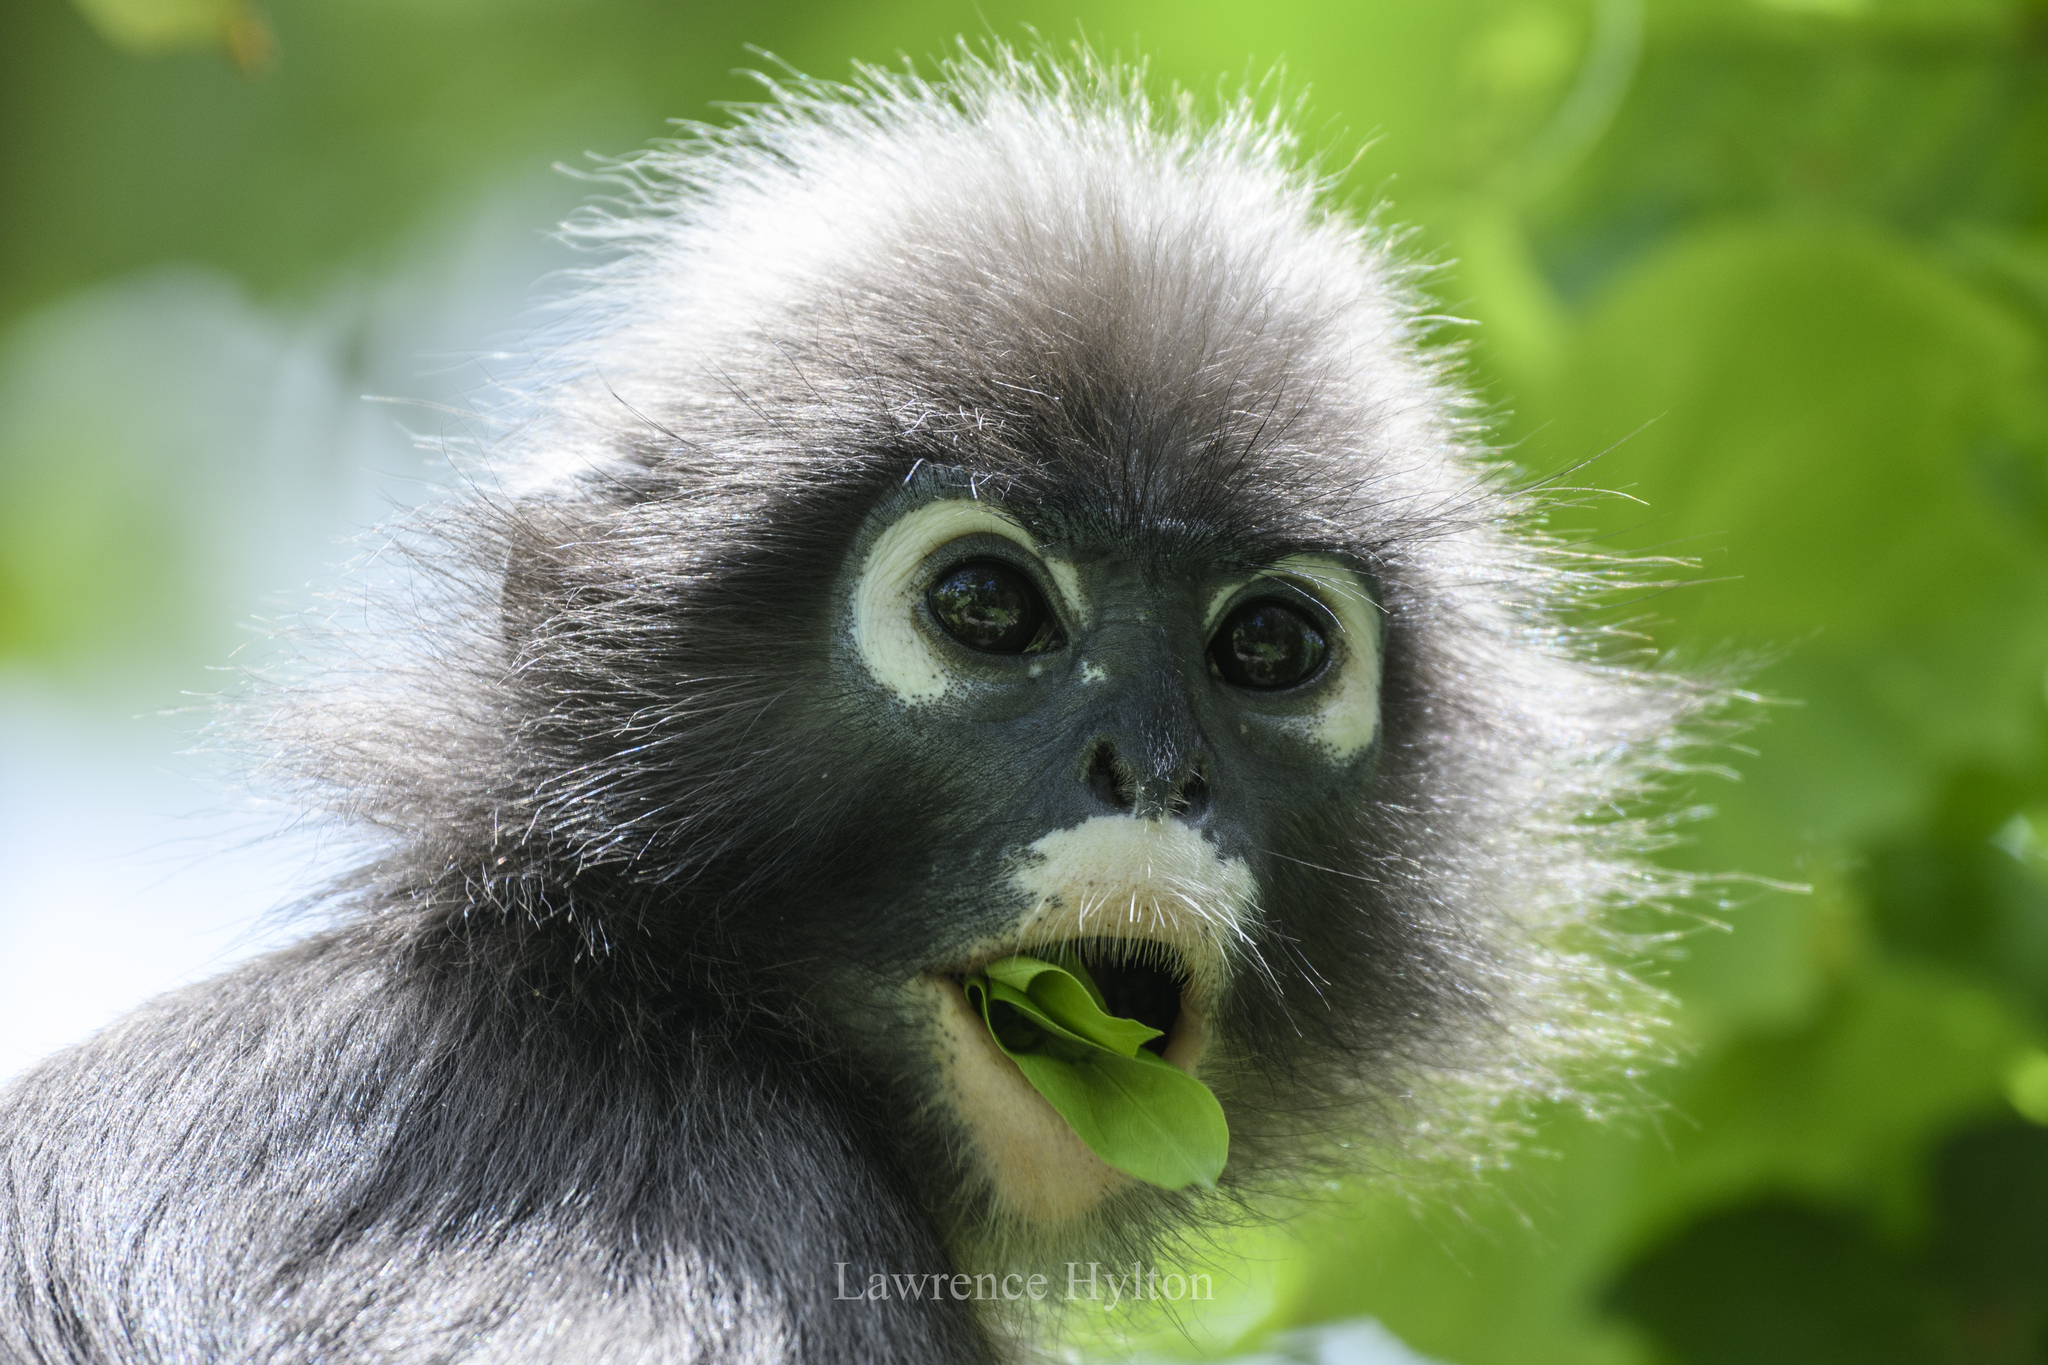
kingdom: Animalia
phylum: Chordata
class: Mammalia
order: Primates
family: Cercopithecidae
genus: Trachypithecus
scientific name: Trachypithecus obscurus
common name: Dusky leaf-monkey
